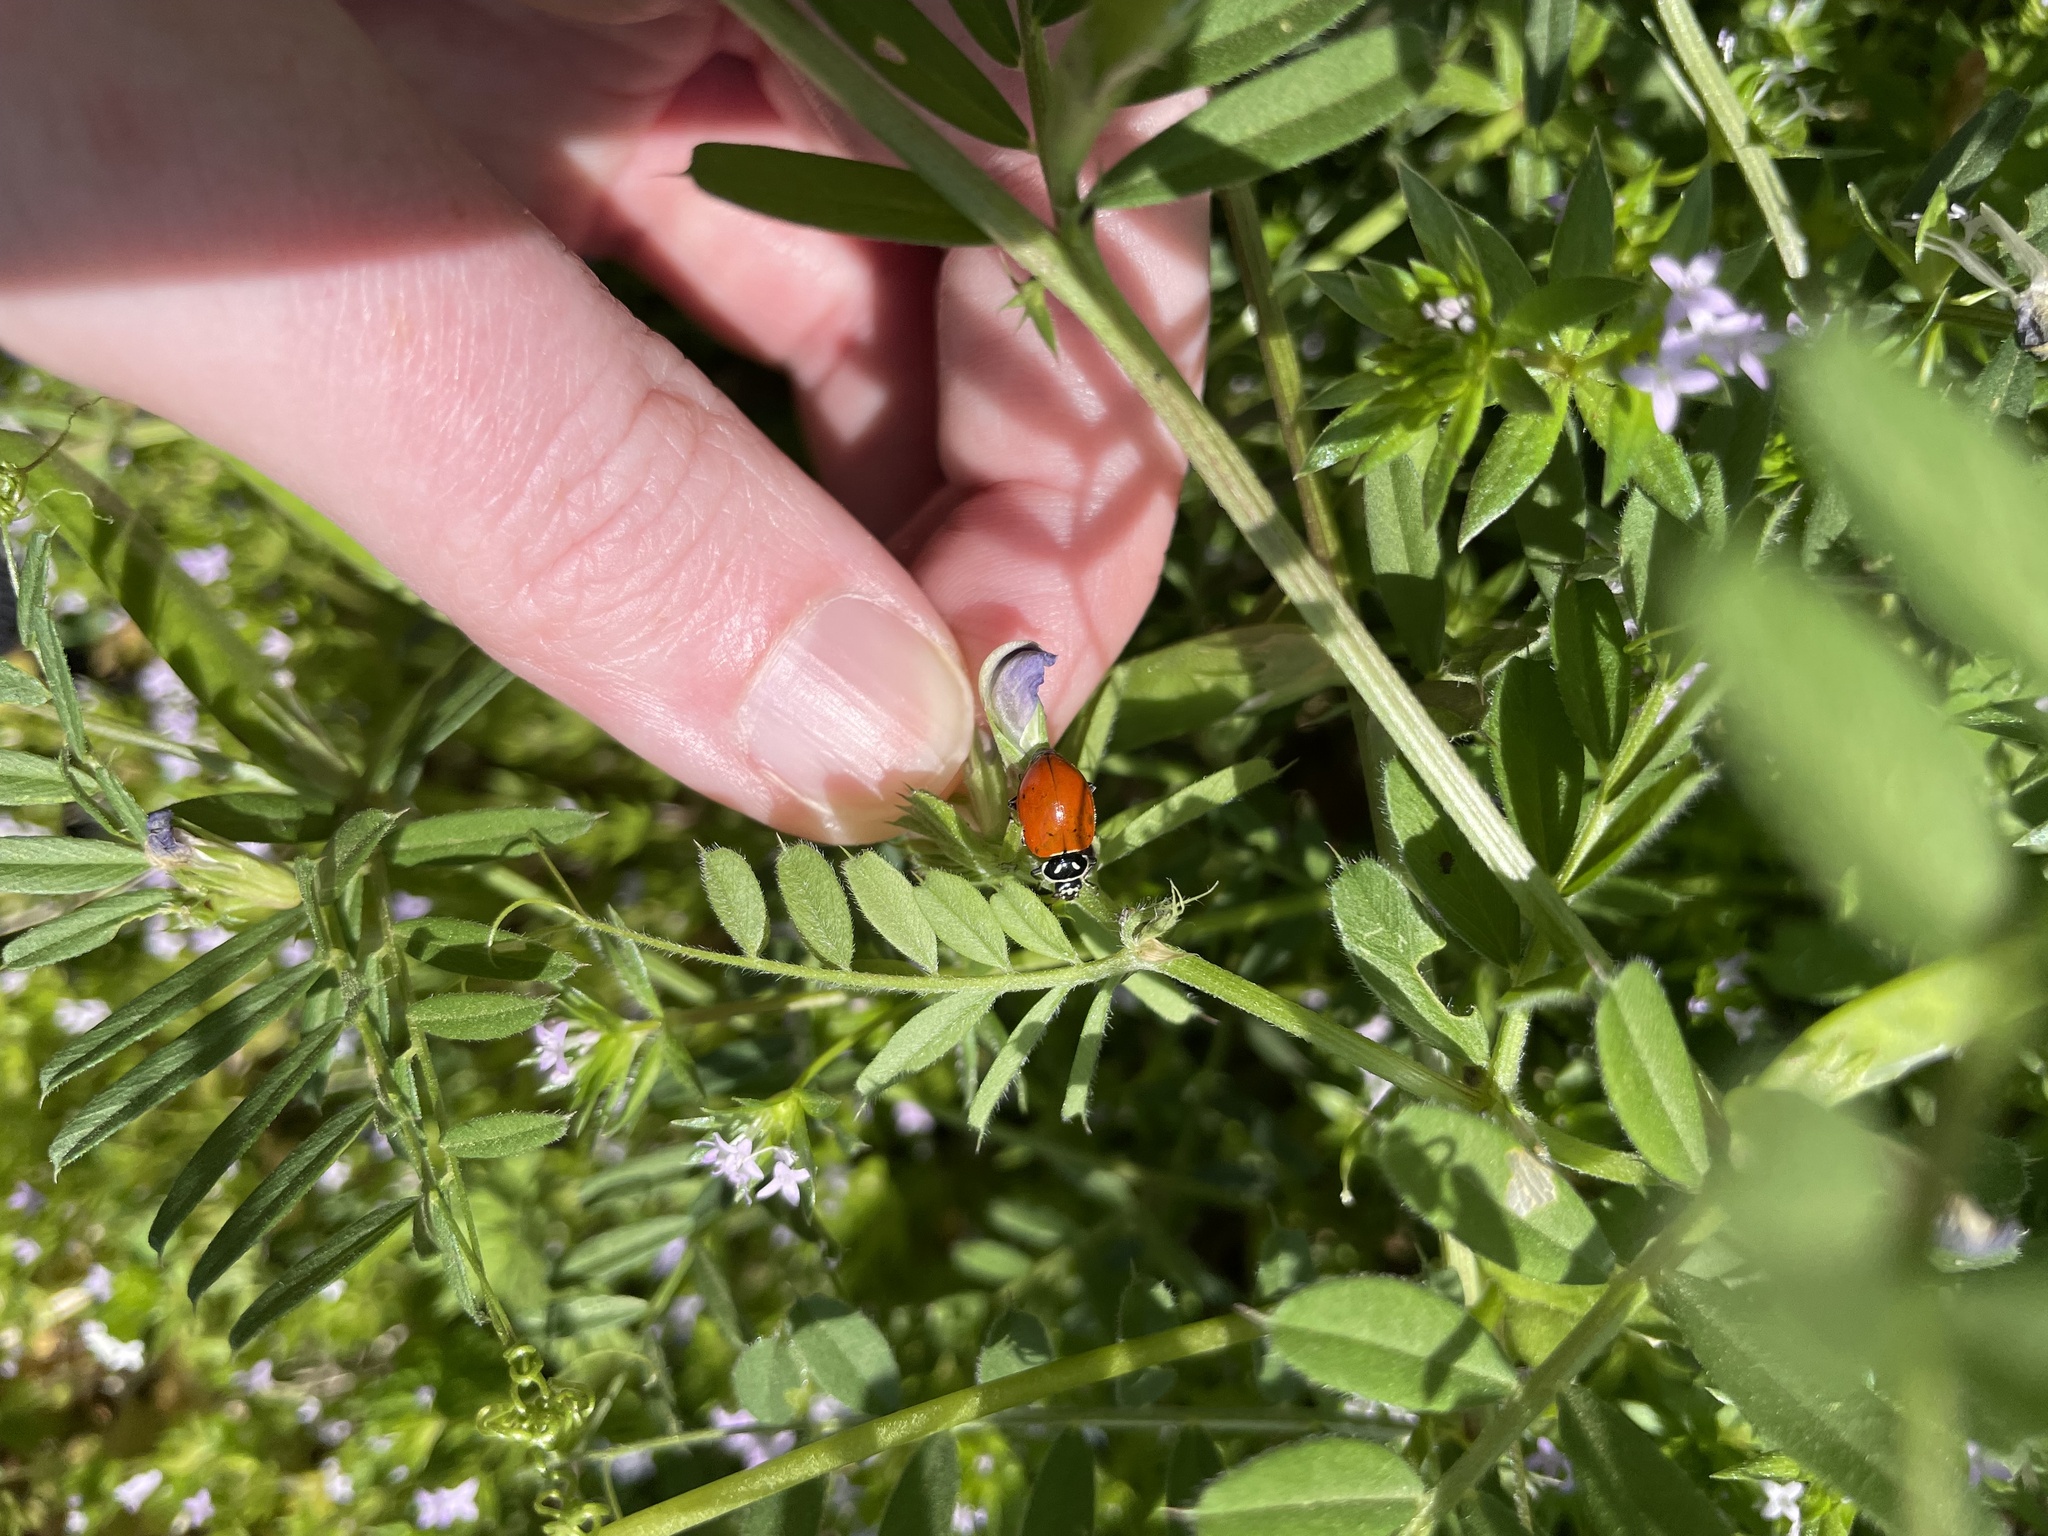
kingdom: Animalia
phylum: Arthropoda
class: Insecta
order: Coleoptera
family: Coccinellidae
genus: Hippodamia
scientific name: Hippodamia convergens
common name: Convergent lady beetle
